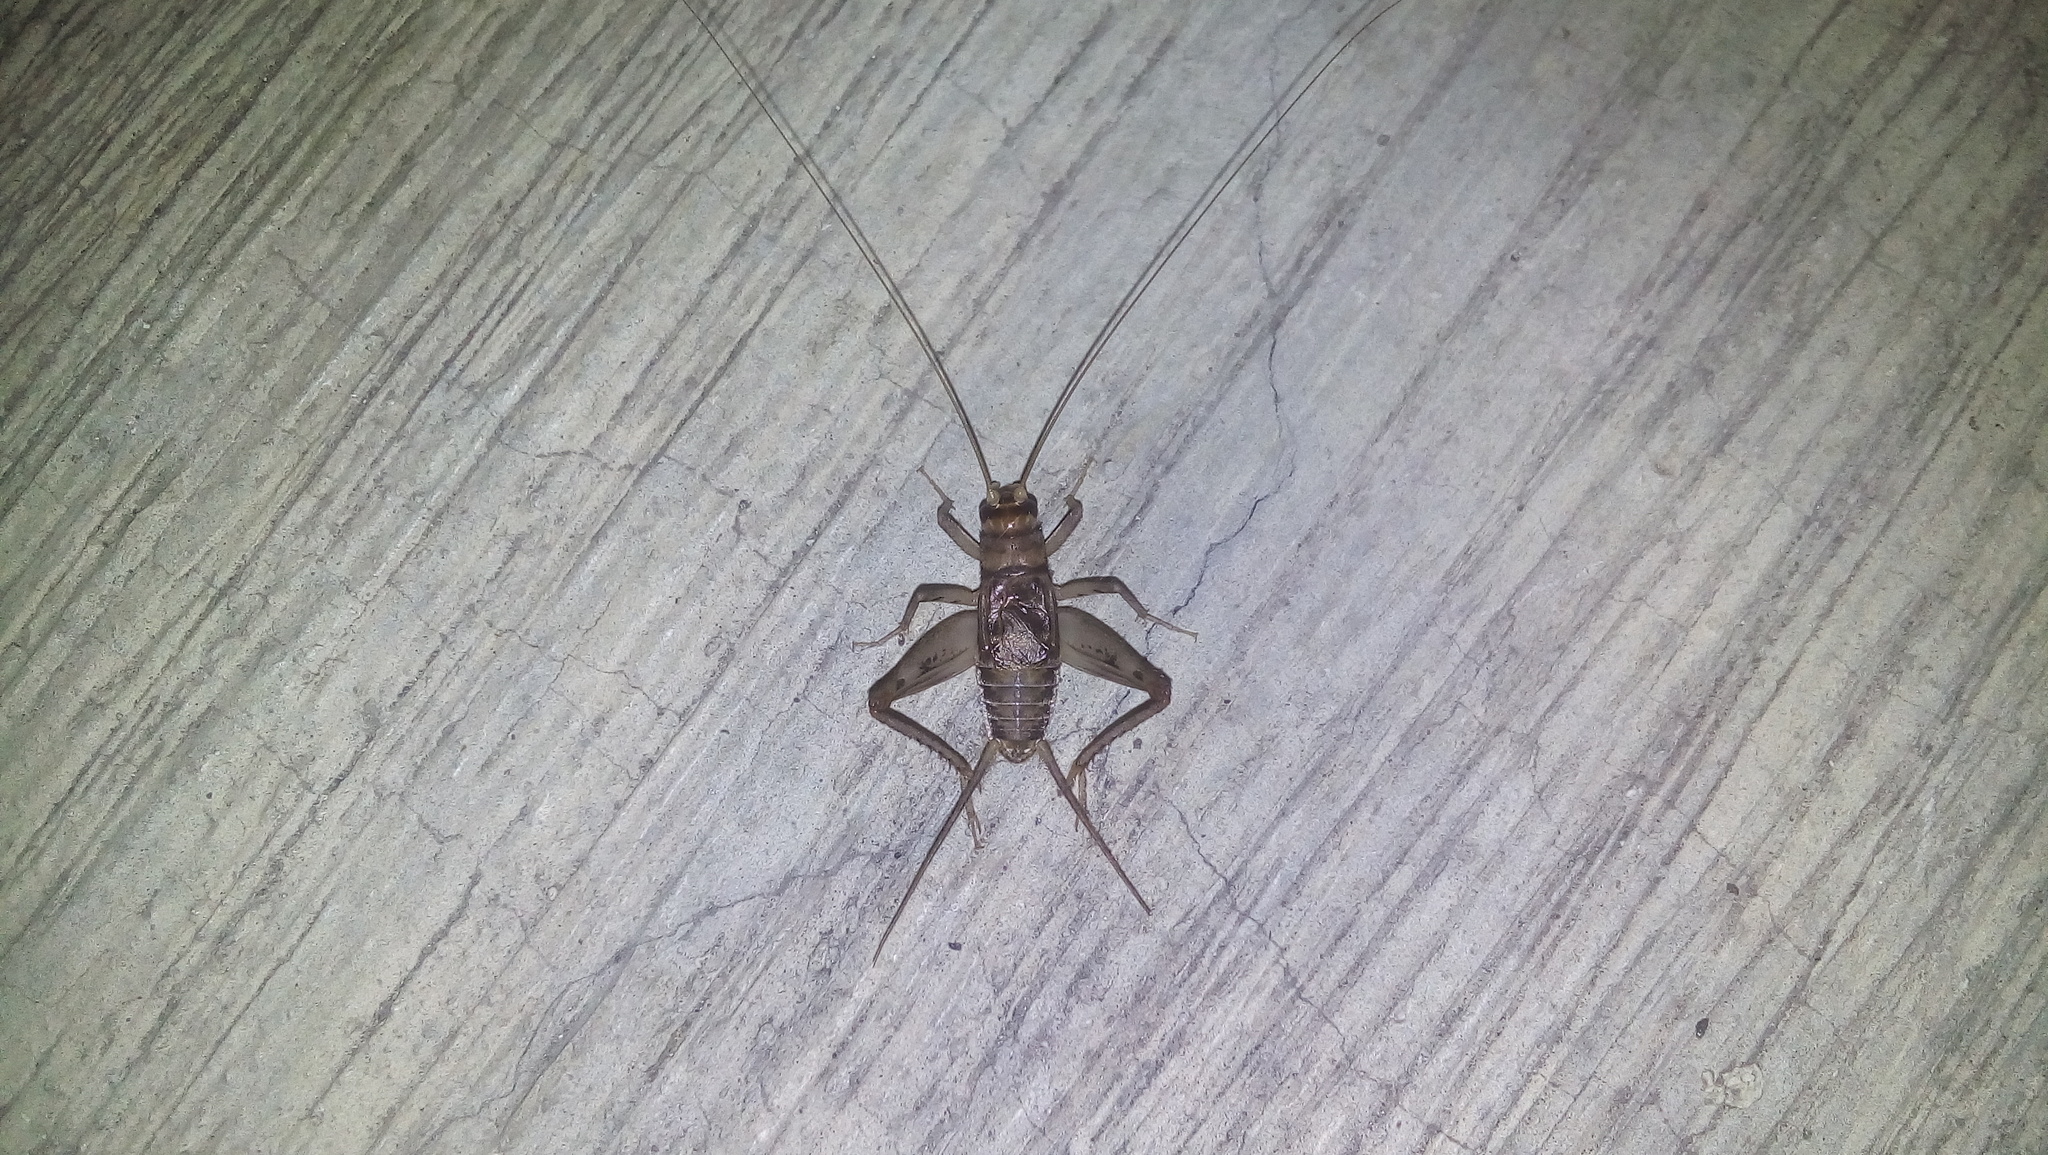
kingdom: Animalia
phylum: Arthropoda
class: Insecta
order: Orthoptera
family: Gryllidae
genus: Gryllodes
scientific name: Gryllodes sigillatus
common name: Tropical house cricket
